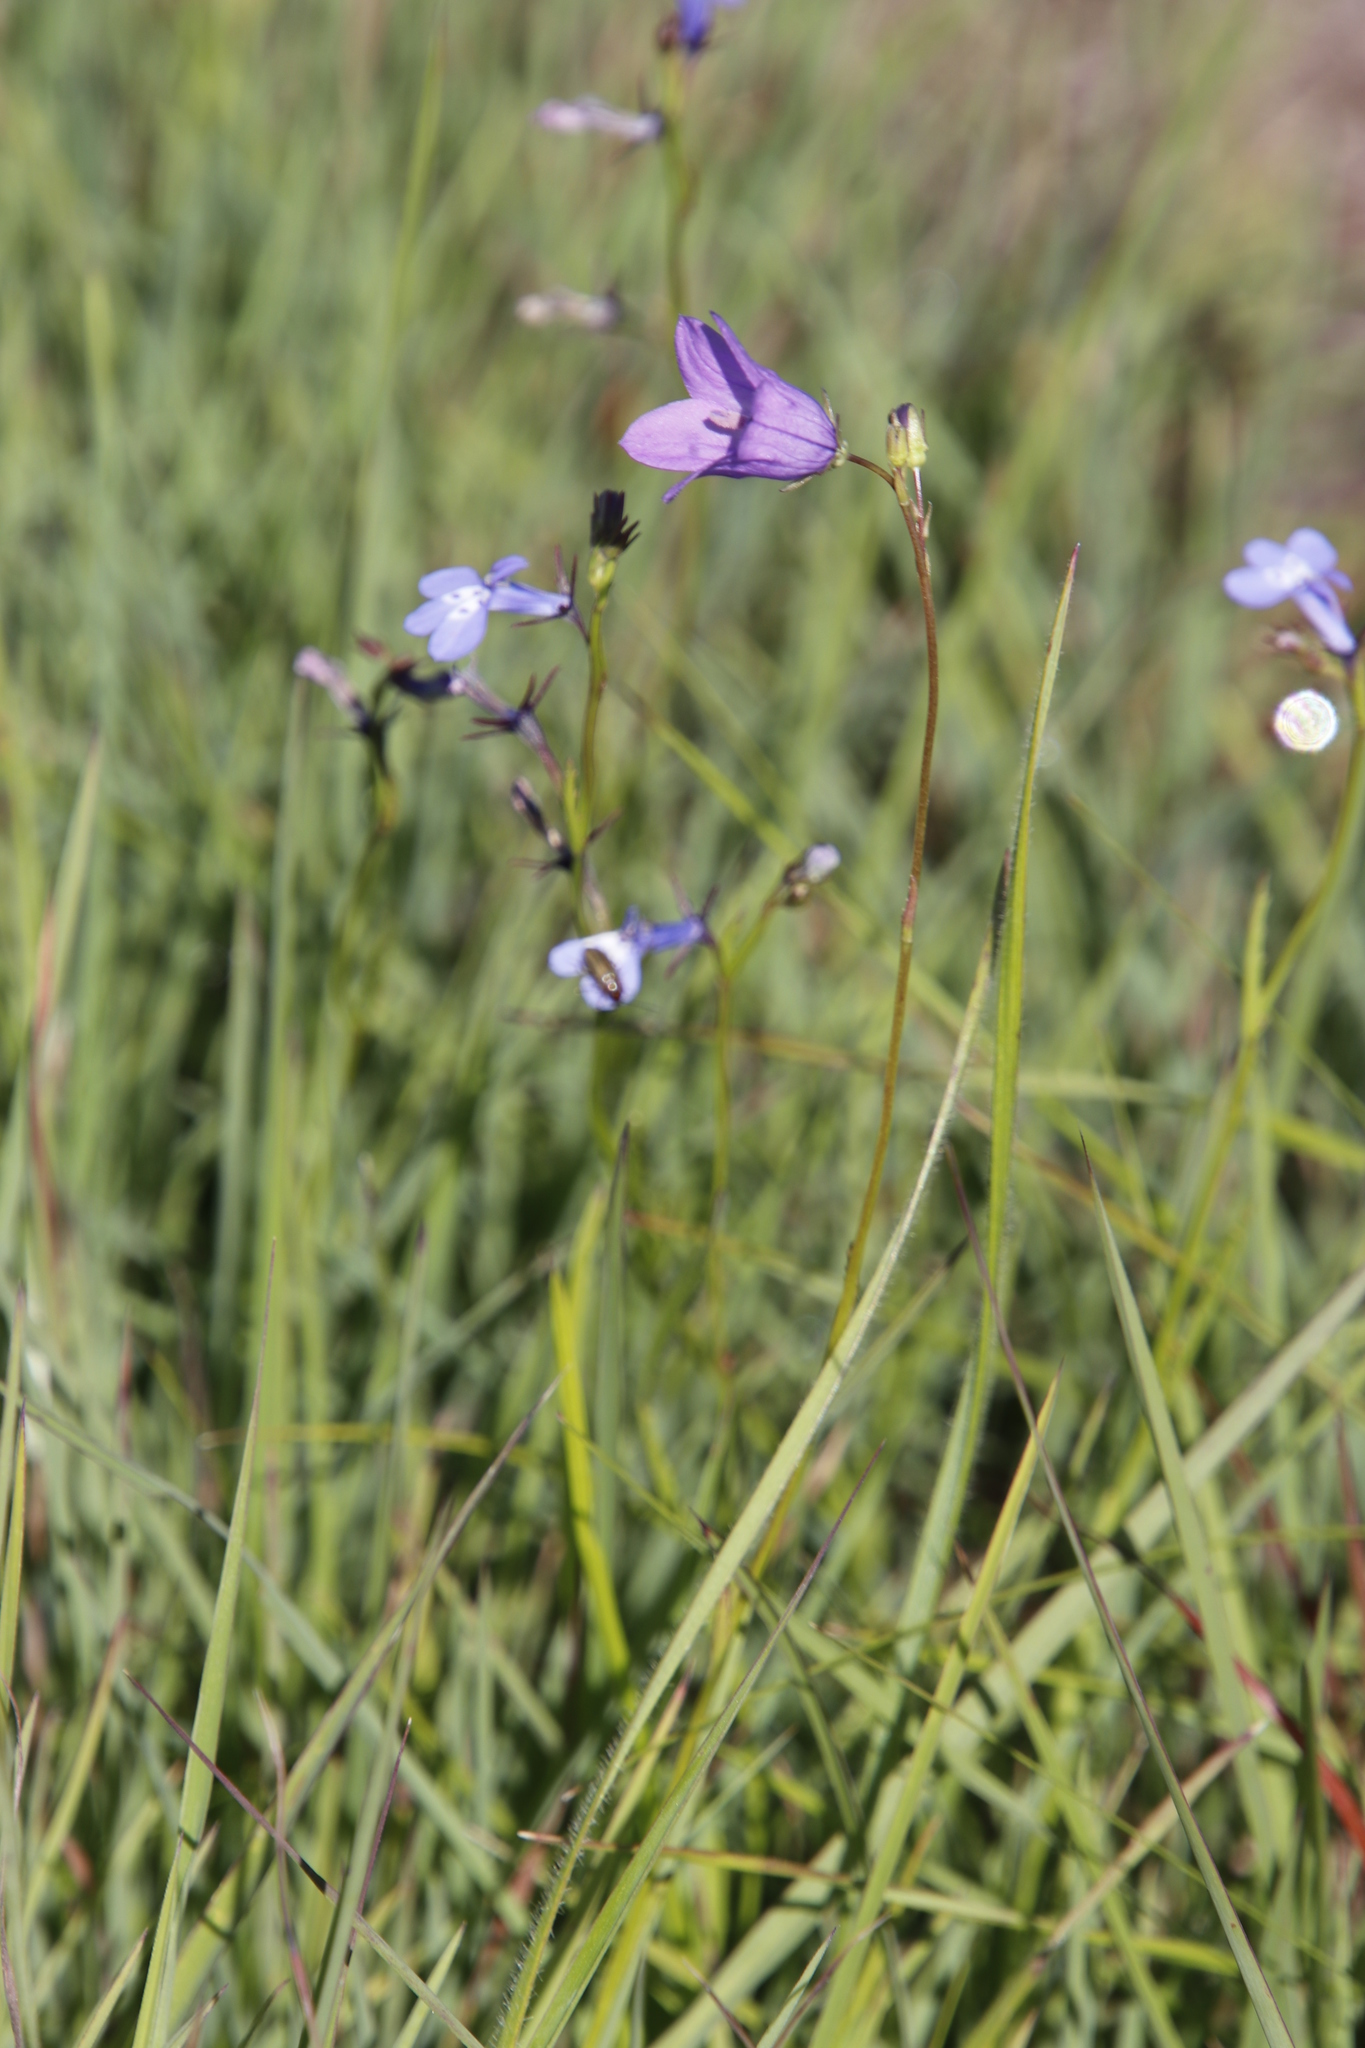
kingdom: Plantae
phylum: Tracheophyta
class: Magnoliopsida
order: Asterales
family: Campanulaceae
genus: Lobelia
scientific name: Lobelia flaccida
